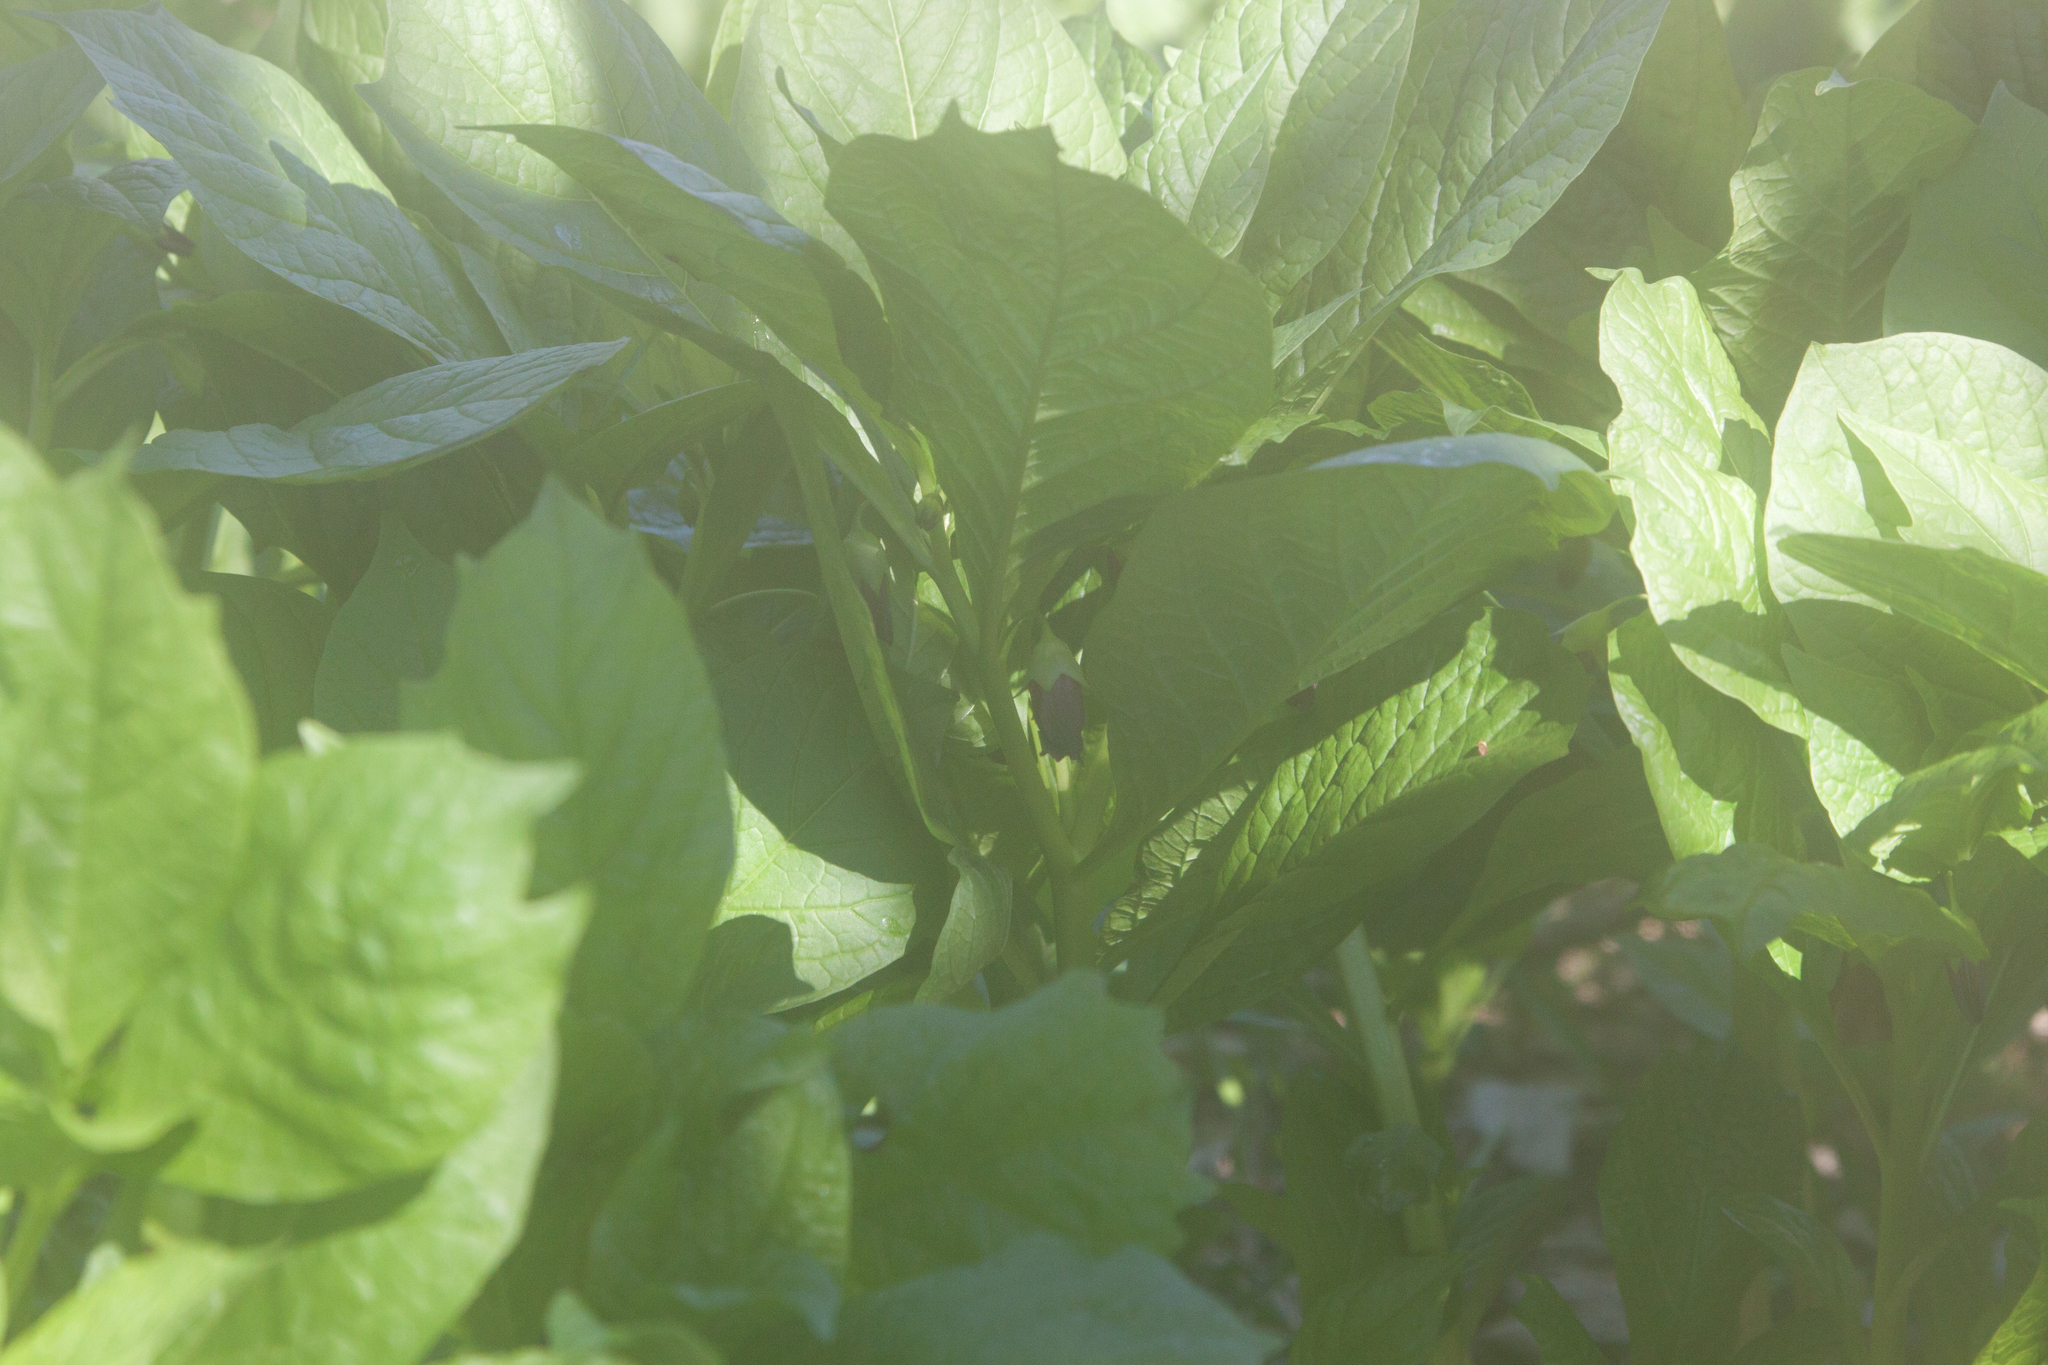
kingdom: Plantae
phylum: Tracheophyta
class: Magnoliopsida
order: Solanales
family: Solanaceae
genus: Scopolia
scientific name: Scopolia carniolica
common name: Scopolia
